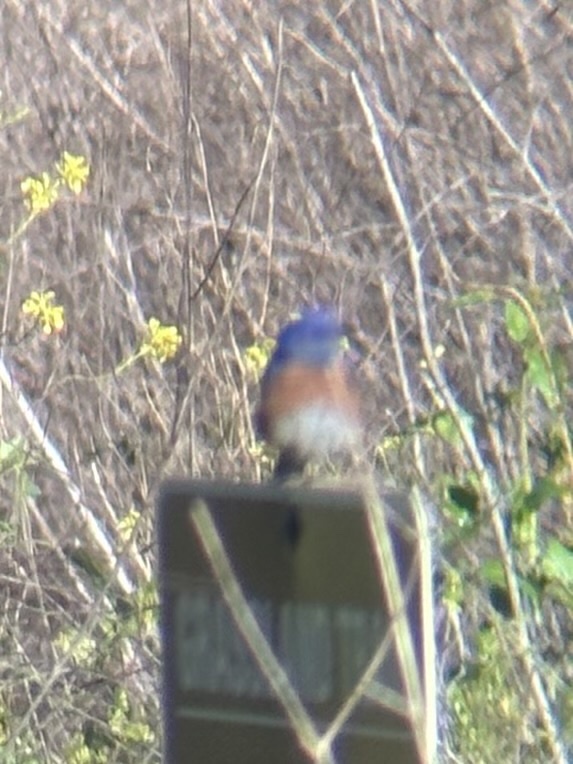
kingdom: Animalia
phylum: Chordata
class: Aves
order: Passeriformes
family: Turdidae
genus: Sialia
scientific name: Sialia mexicana
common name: Western bluebird
